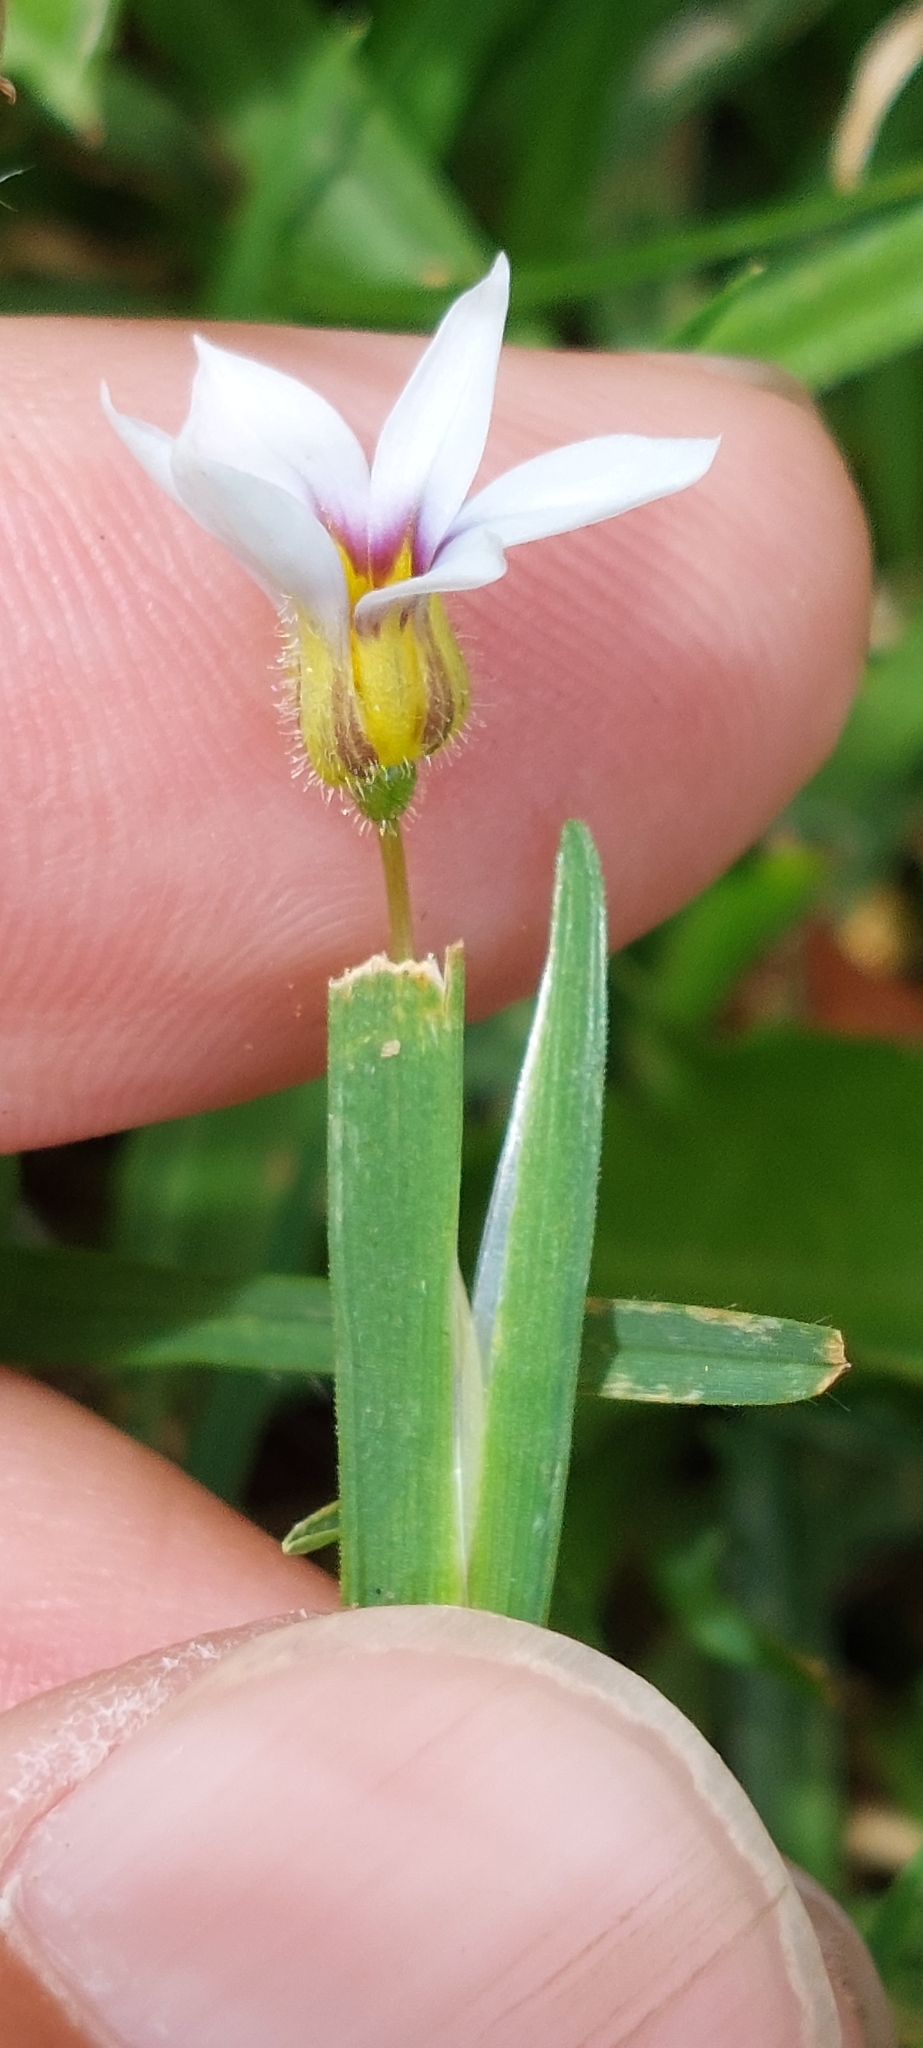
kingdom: Plantae
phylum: Tracheophyta
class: Liliopsida
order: Asparagales
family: Iridaceae
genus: Sisyrinchium
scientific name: Sisyrinchium micranthum
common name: Bermuda pigroot
